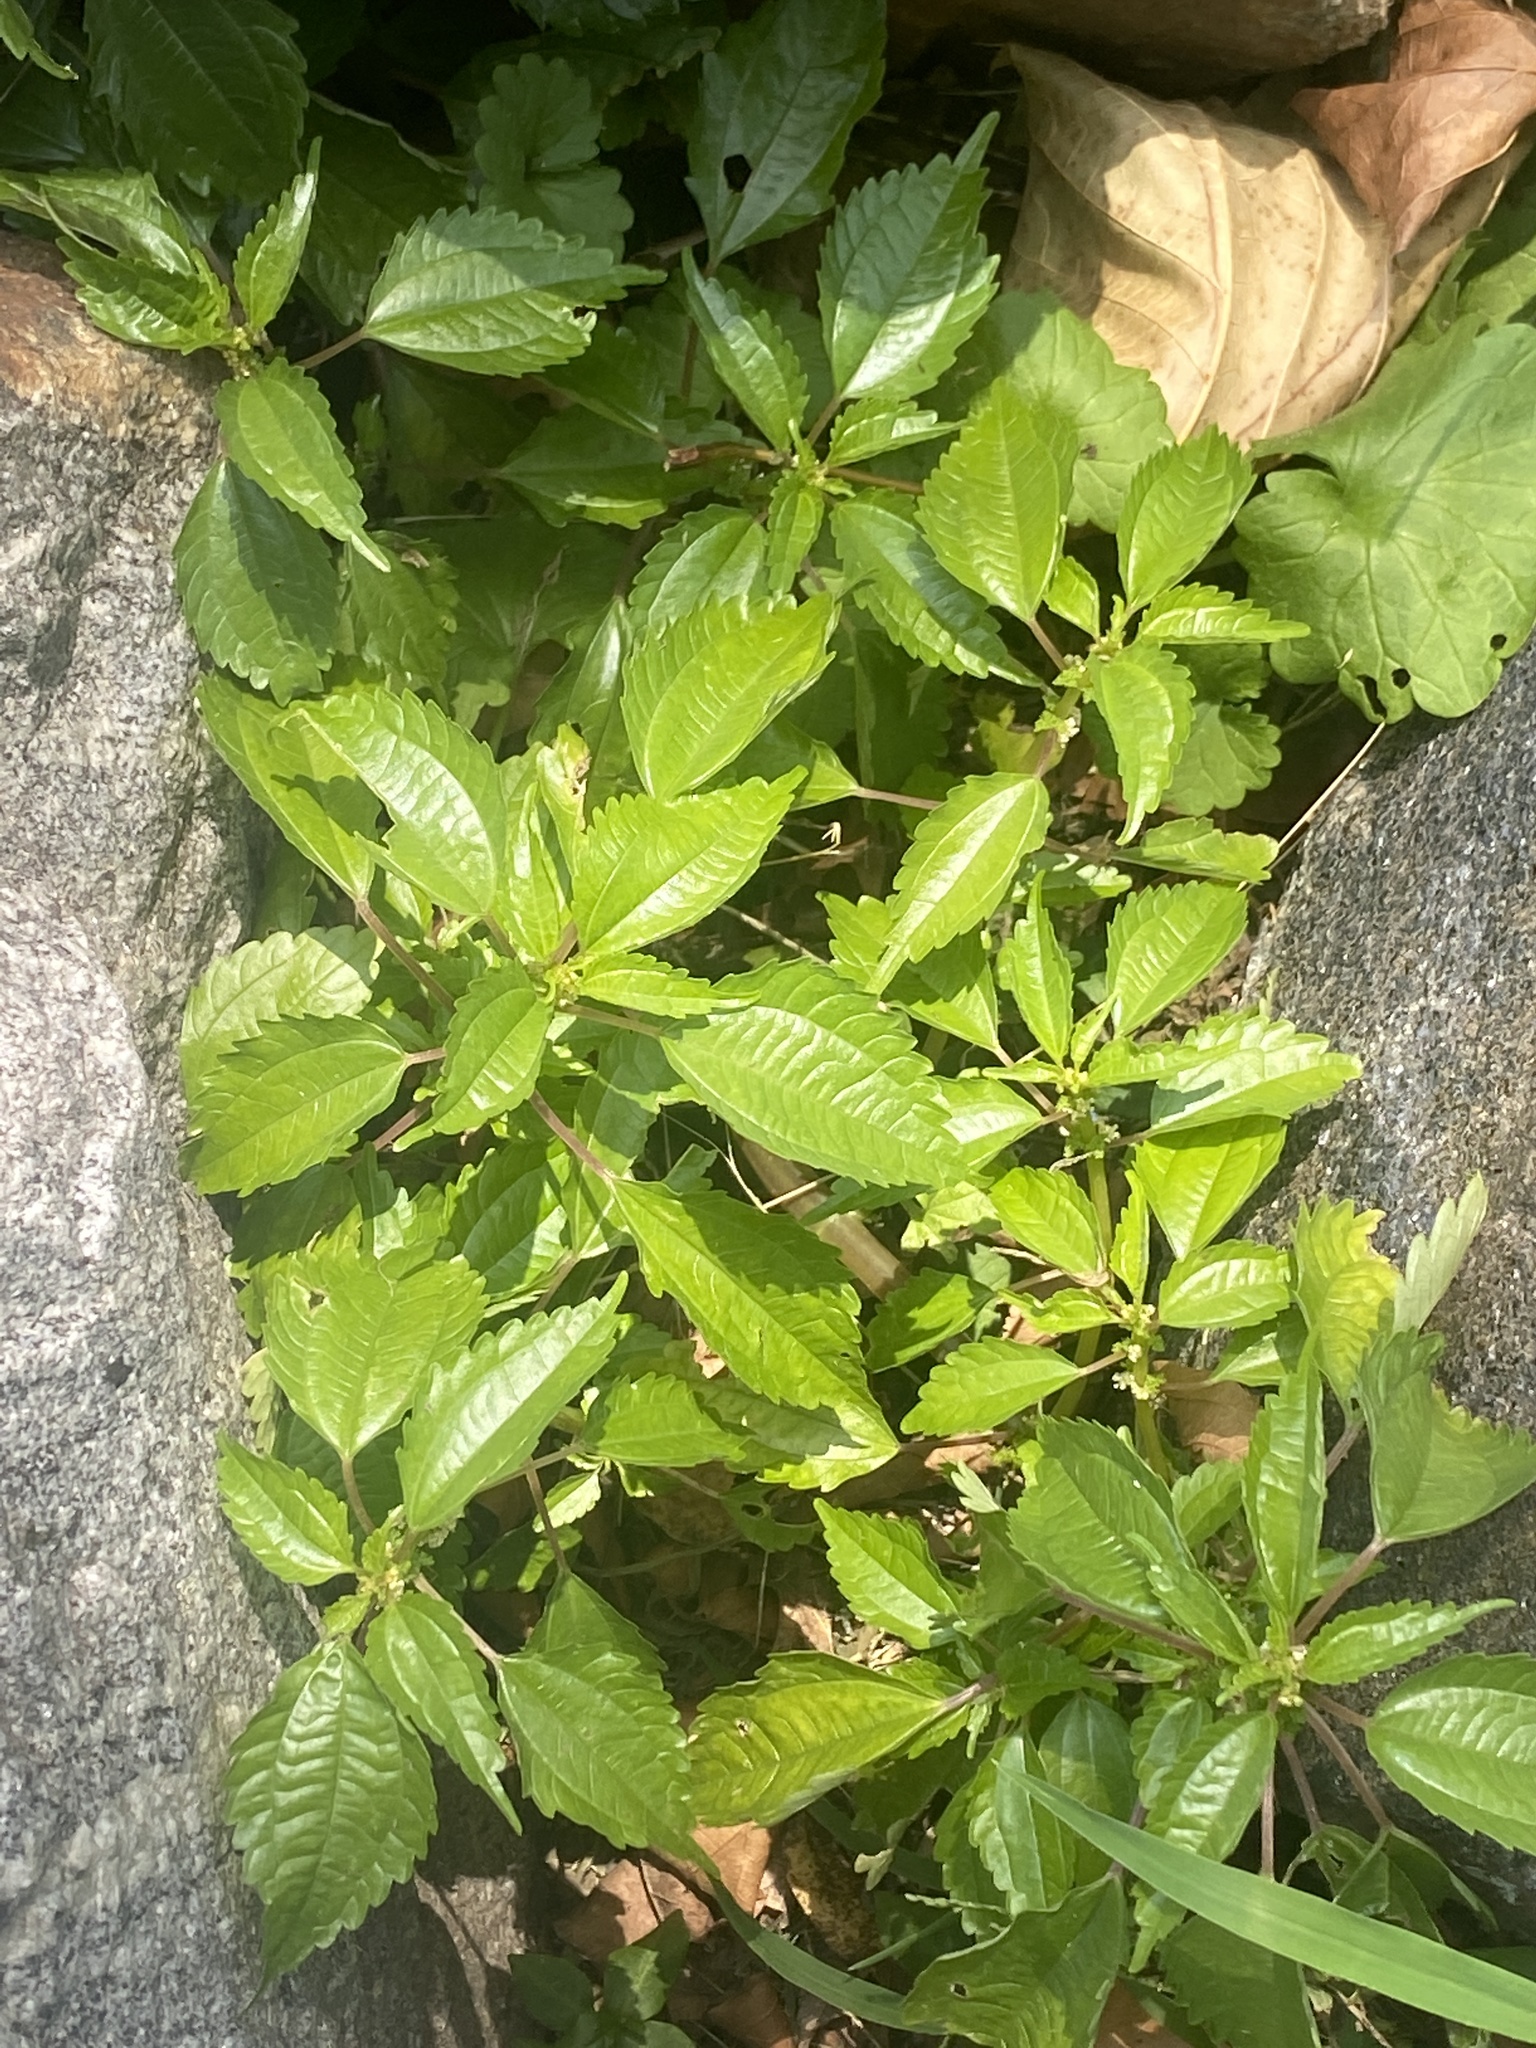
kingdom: Plantae
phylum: Tracheophyta
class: Magnoliopsida
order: Rosales
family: Urticaceae
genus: Pilea
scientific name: Pilea pumila
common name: Clearweed
